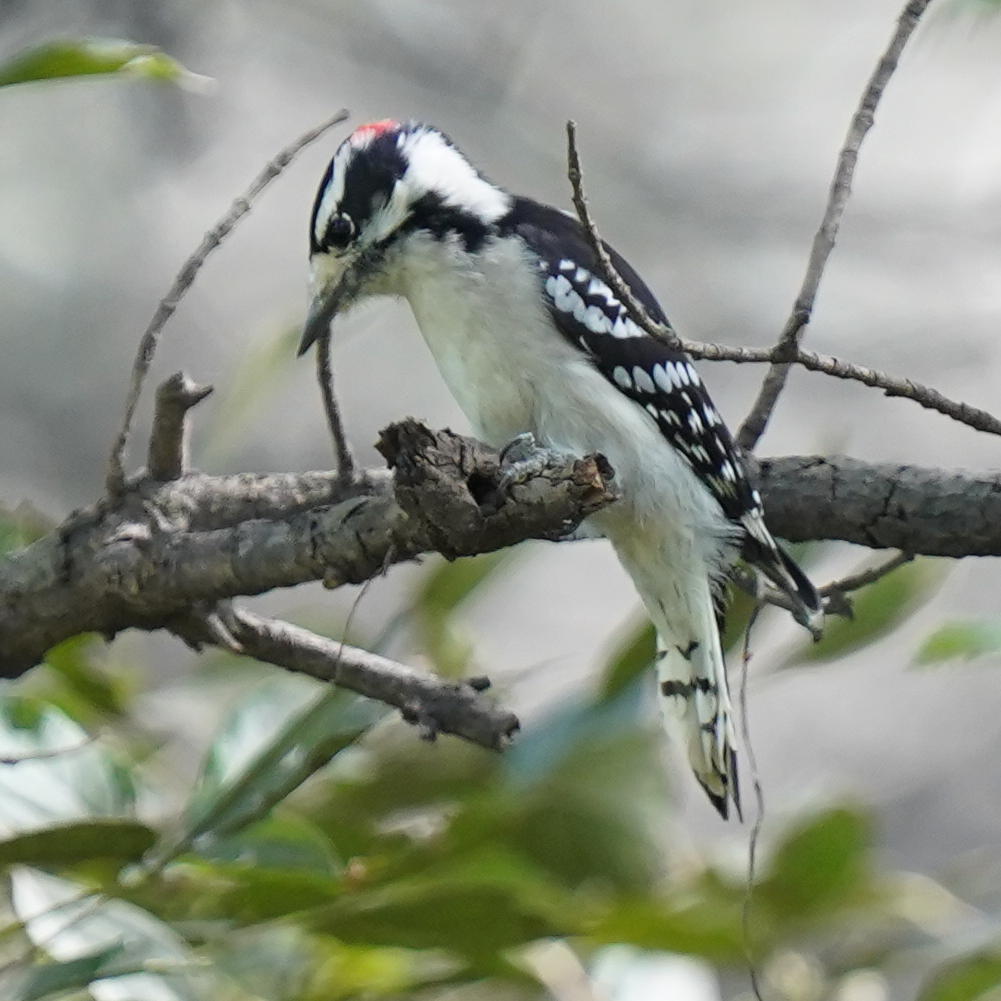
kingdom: Animalia
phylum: Chordata
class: Aves
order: Piciformes
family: Picidae
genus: Dryobates
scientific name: Dryobates pubescens
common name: Downy woodpecker
